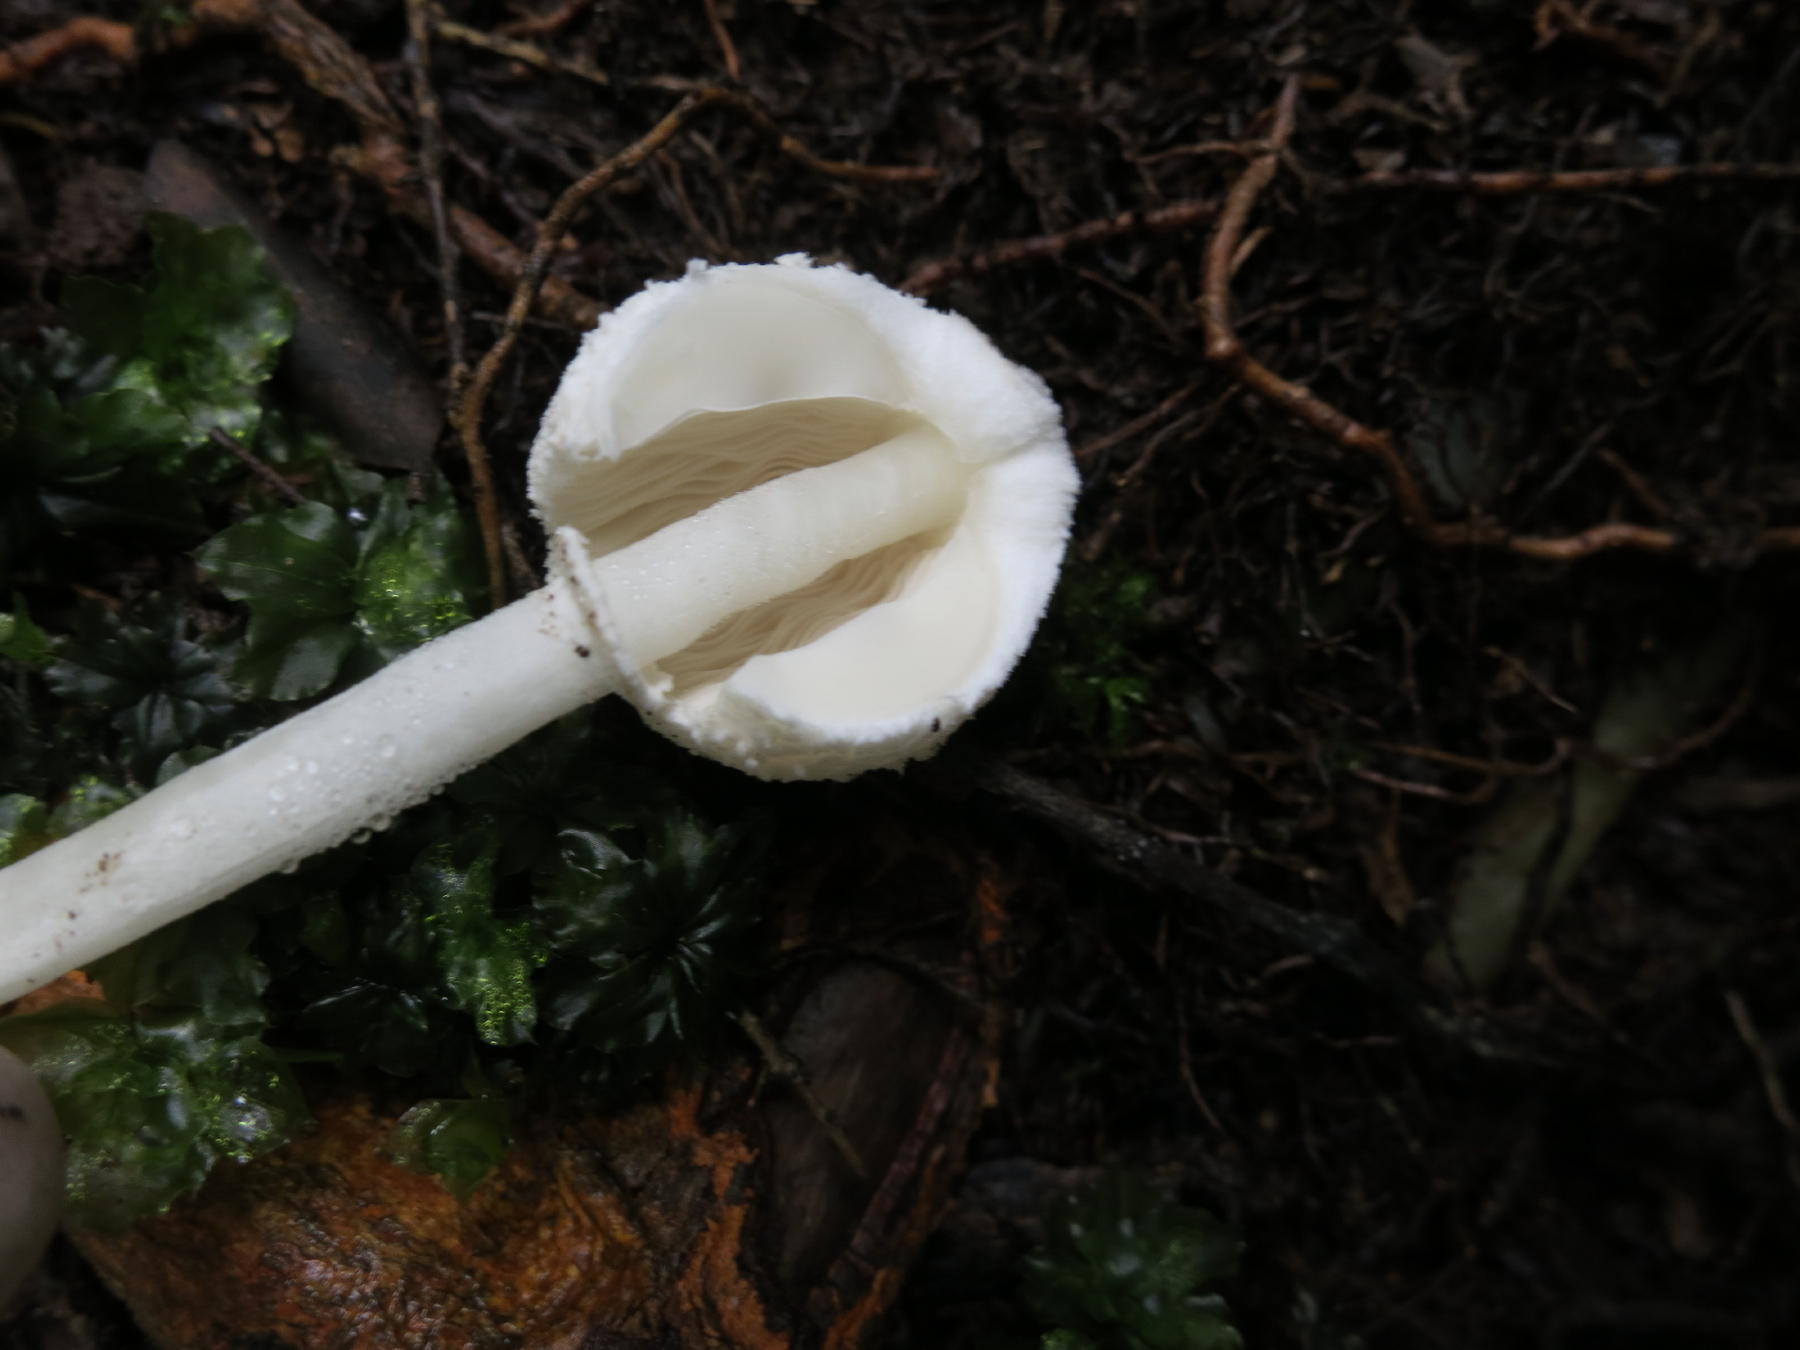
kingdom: Fungi
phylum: Basidiomycota
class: Agaricomycetes
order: Agaricales
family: Agaricaceae
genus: Leucocoprinus
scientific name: Leucocoprinus cepistipes
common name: Onion-stalk parasol
